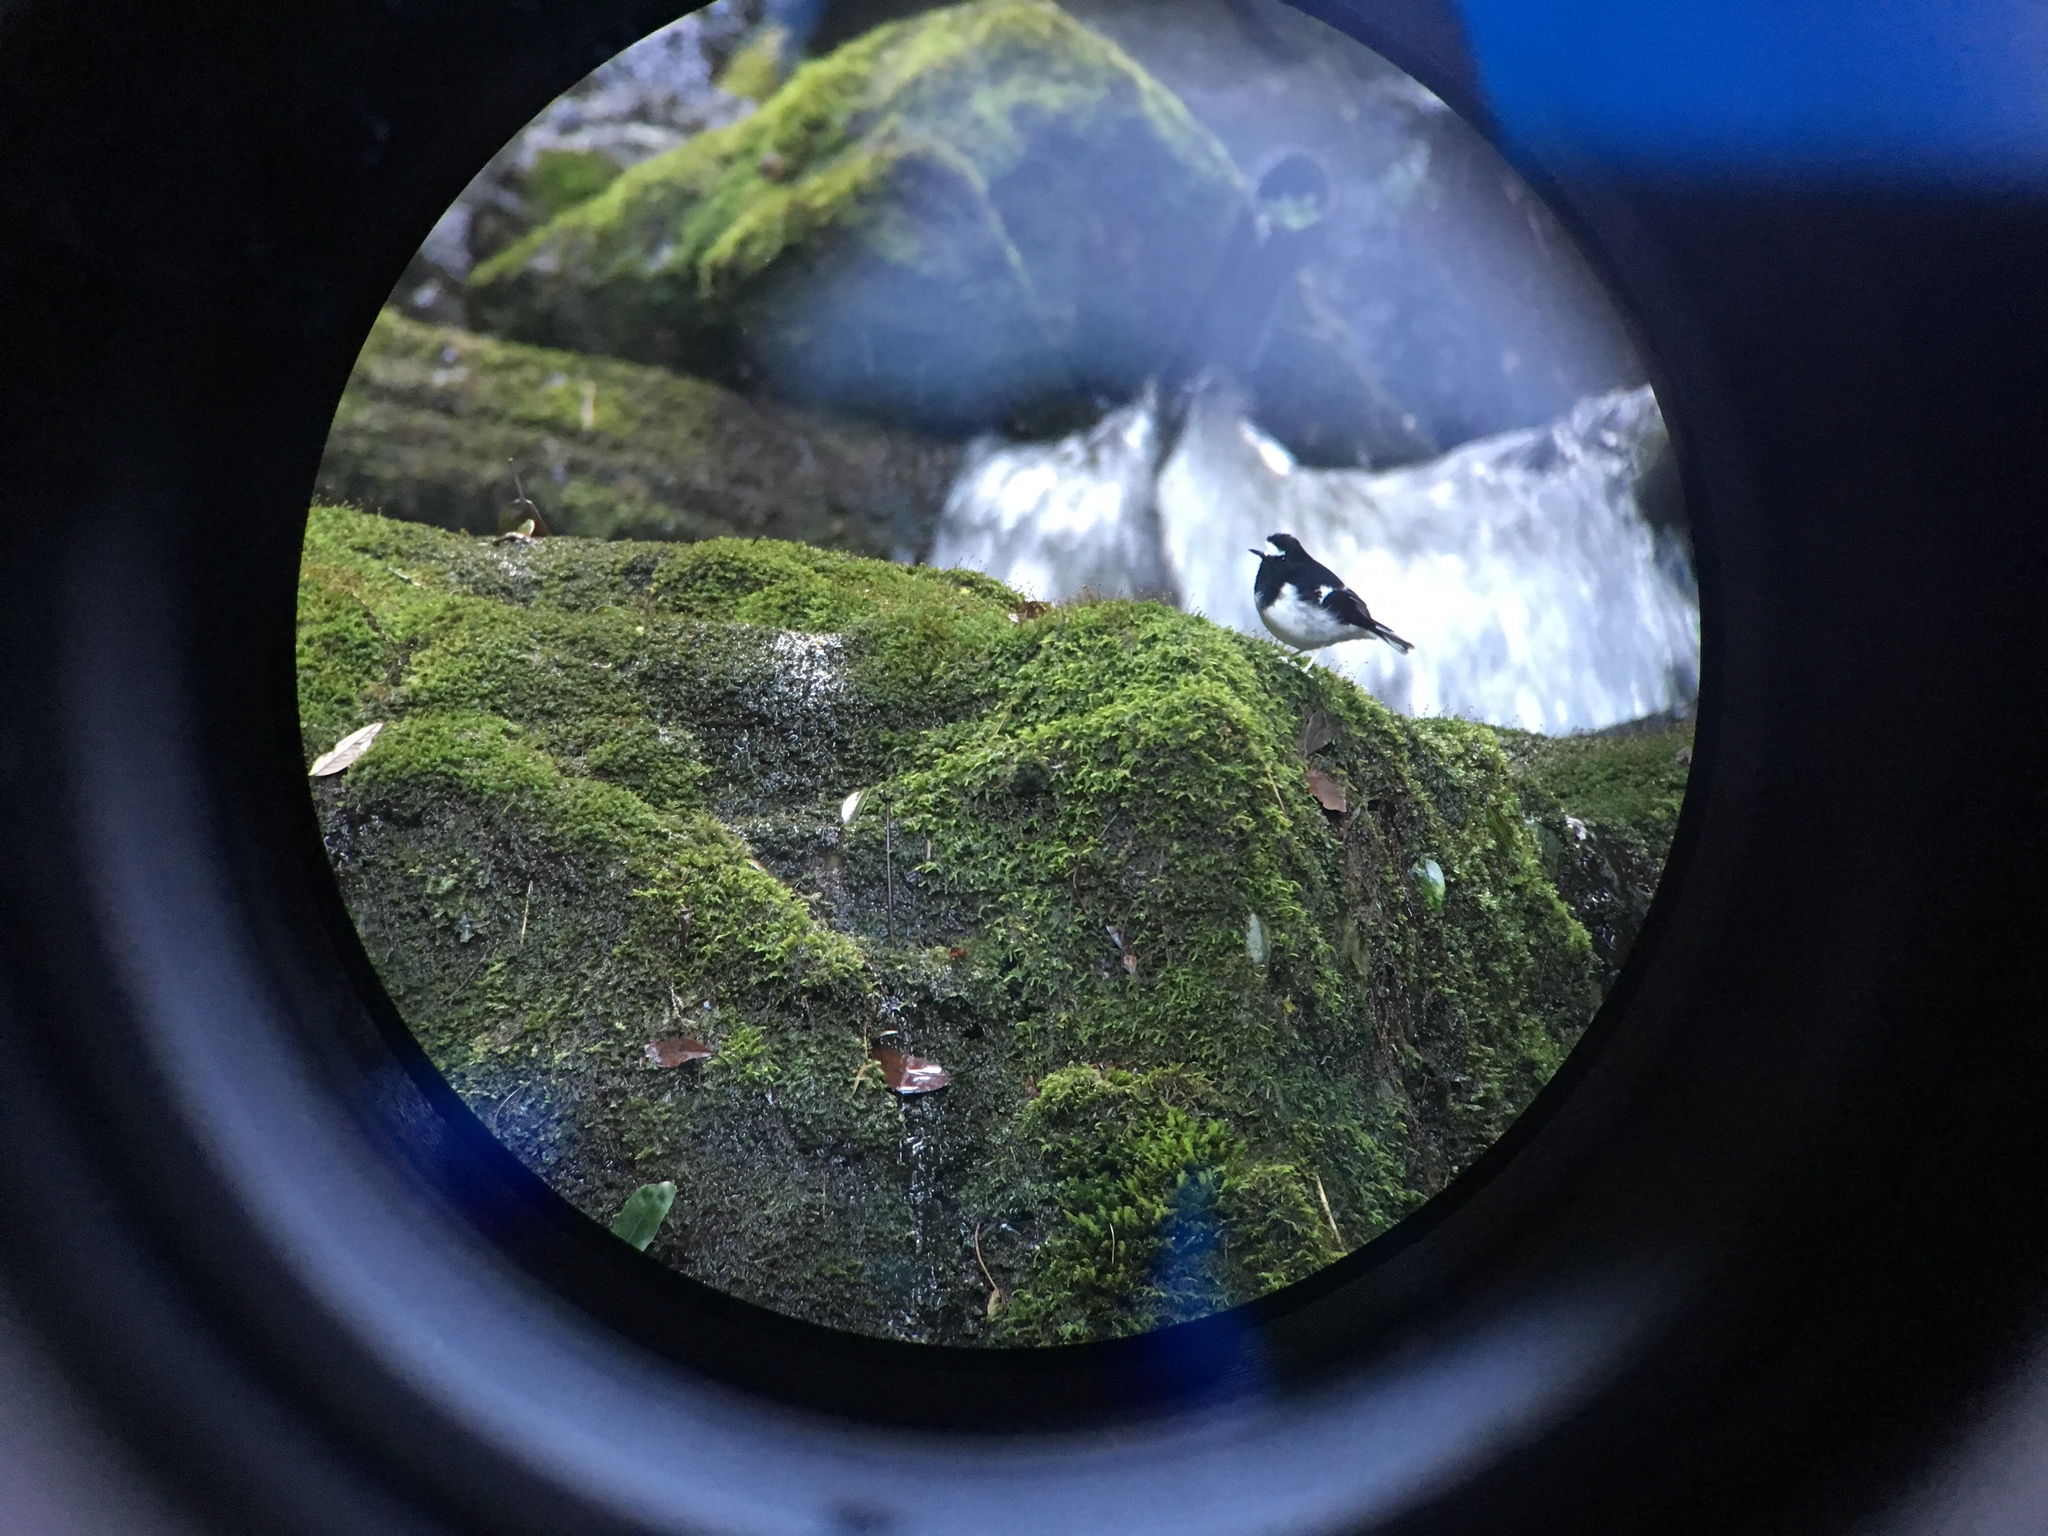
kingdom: Animalia
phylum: Chordata
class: Aves
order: Passeriformes
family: Muscicapidae
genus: Enicurus
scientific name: Enicurus scouleri
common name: Little forktail
